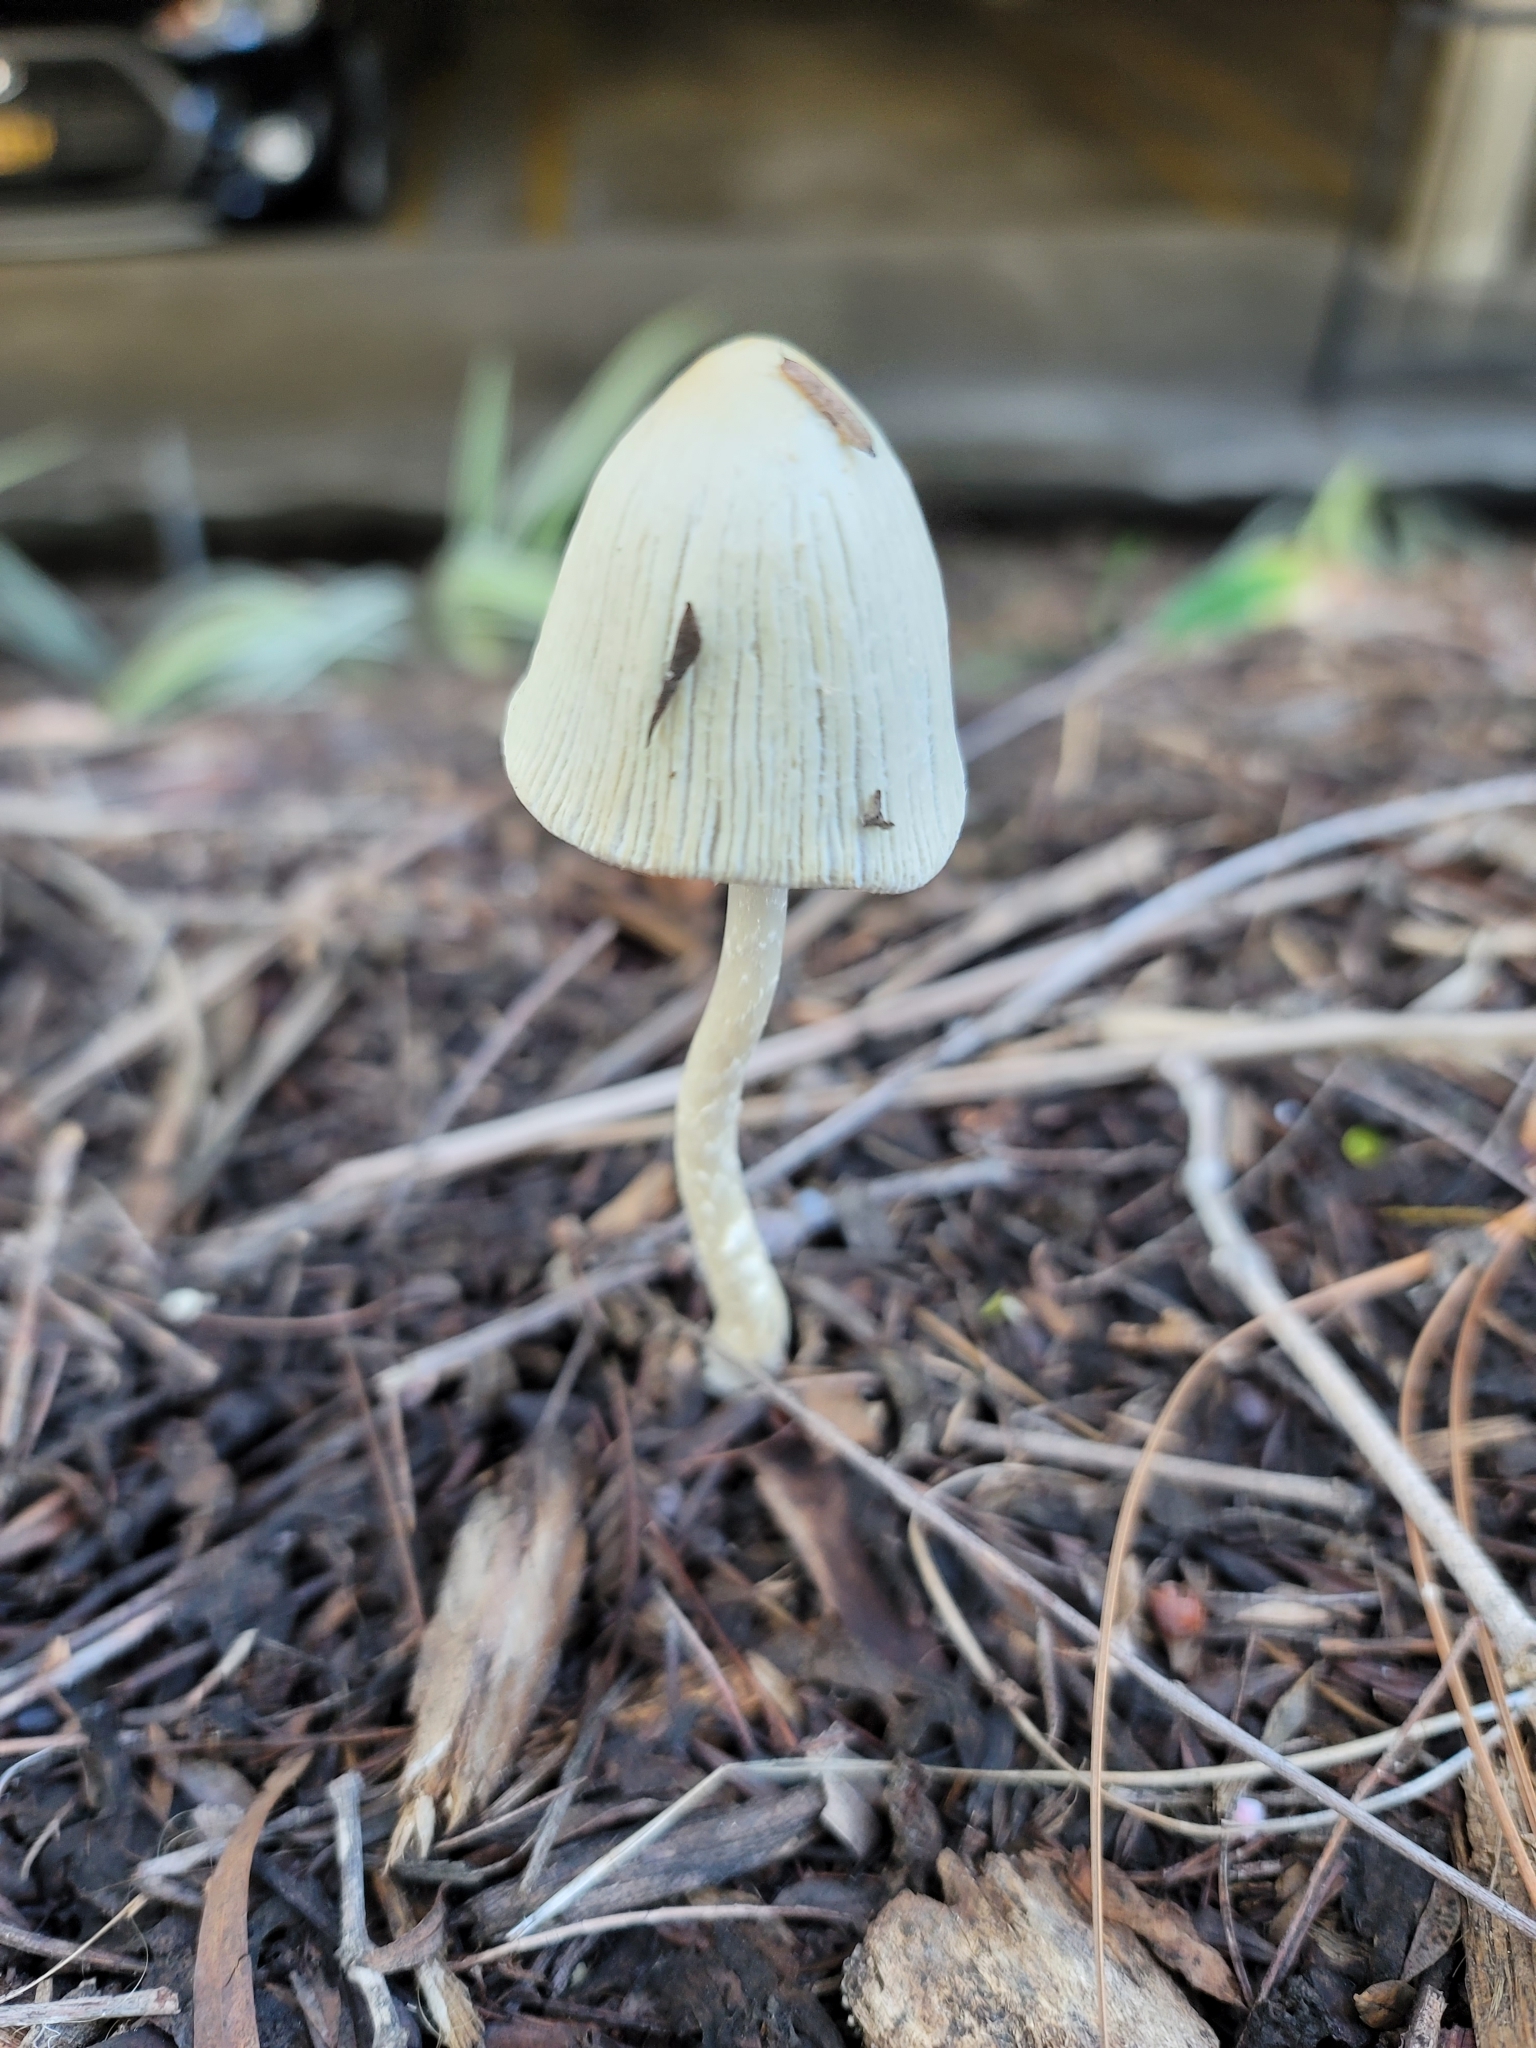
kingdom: Fungi
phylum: Basidiomycota
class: Agaricomycetes
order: Agaricales
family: Psathyrellaceae
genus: Coprinellus
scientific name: Coprinellus flocculosus
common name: Flocculose inkcap
